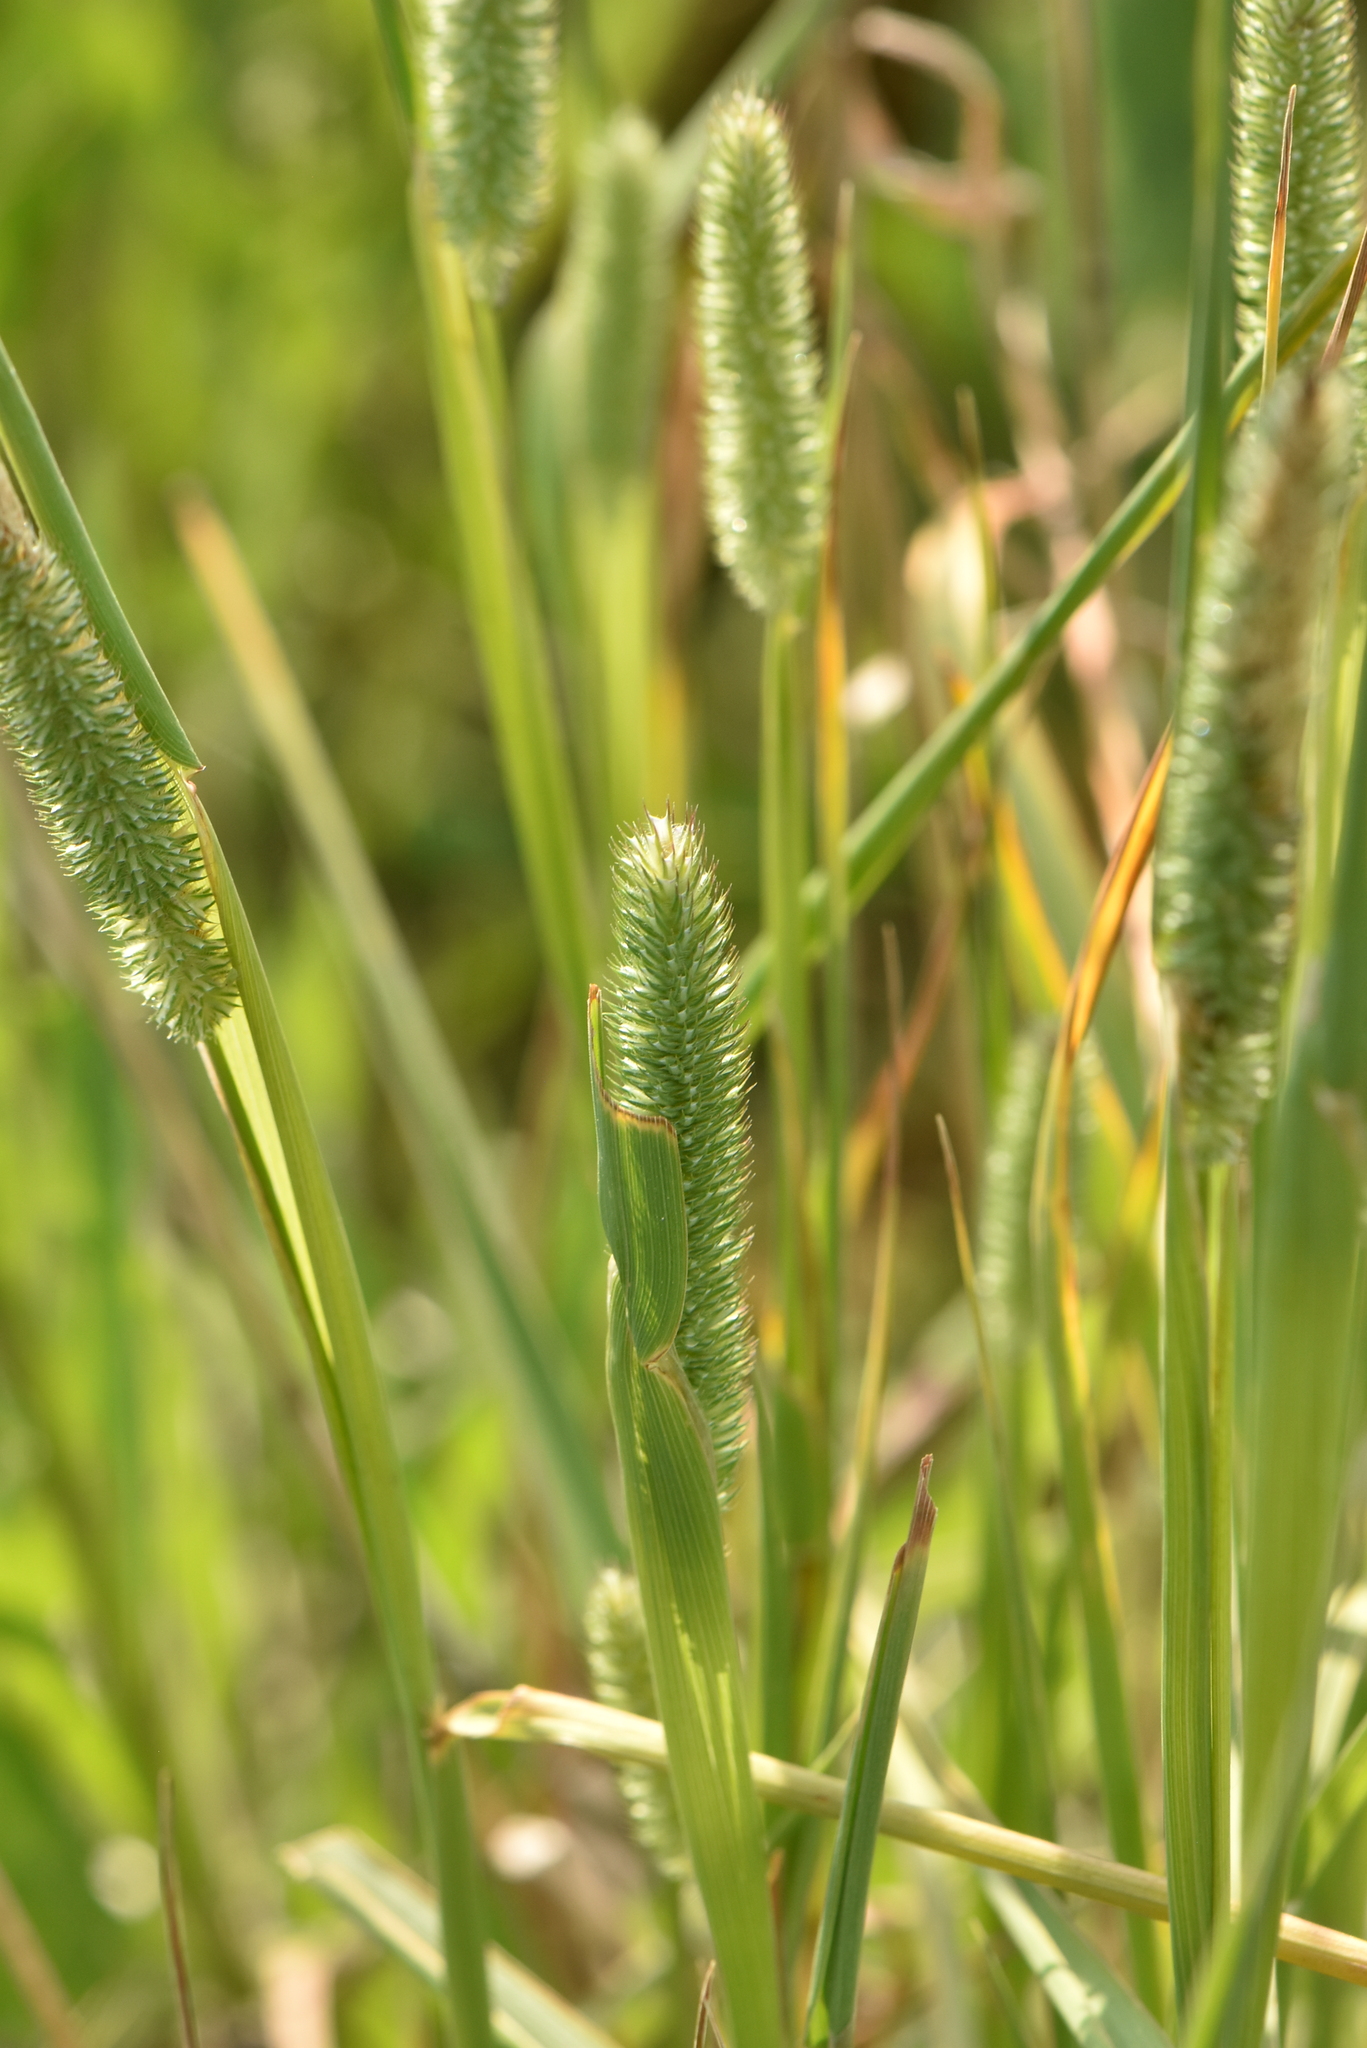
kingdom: Plantae
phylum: Tracheophyta
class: Liliopsida
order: Poales
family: Poaceae
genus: Phleum
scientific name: Phleum pratense
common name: Timothy grass
